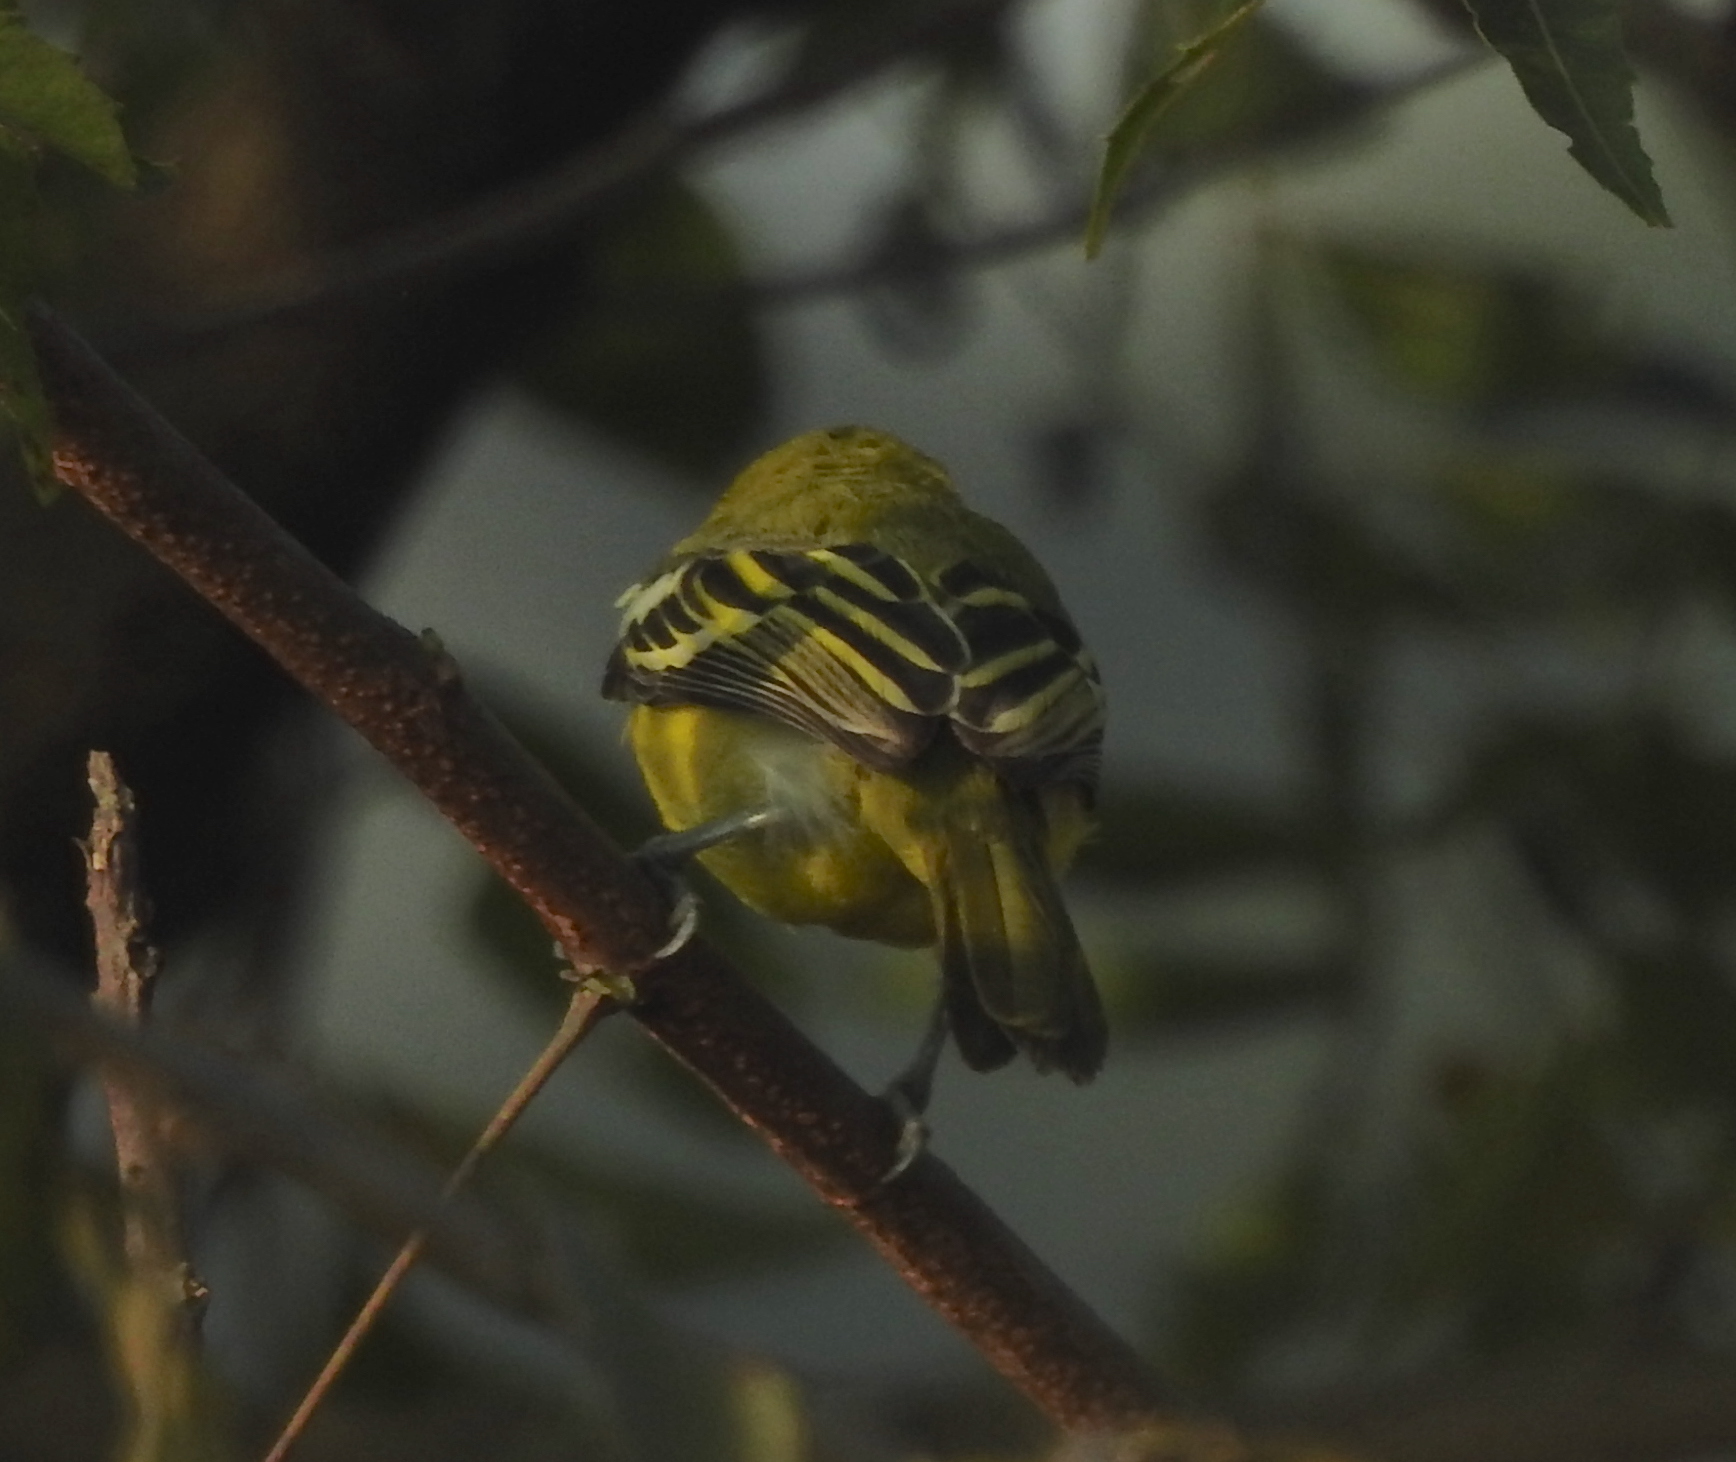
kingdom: Animalia
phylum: Chordata
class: Aves
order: Passeriformes
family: Aegithinidae
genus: Aegithina
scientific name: Aegithina tiphia
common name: Common iora
